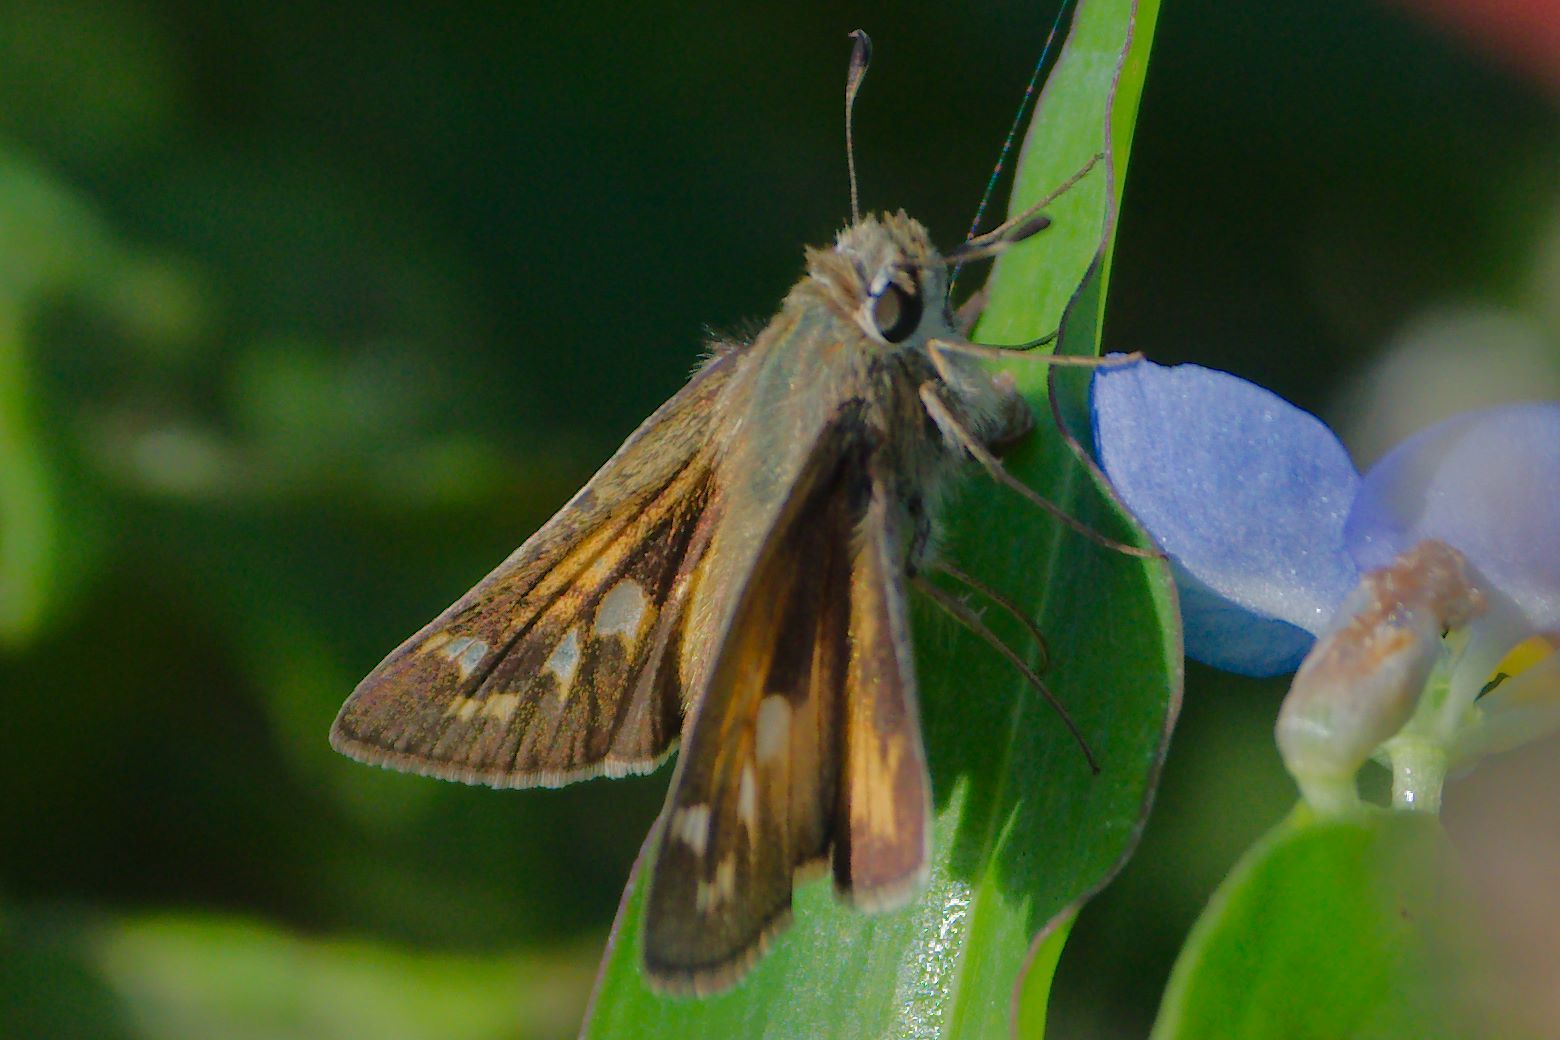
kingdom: Animalia
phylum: Arthropoda
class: Insecta
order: Lepidoptera
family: Hesperiidae
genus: Atalopedes
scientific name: Atalopedes
